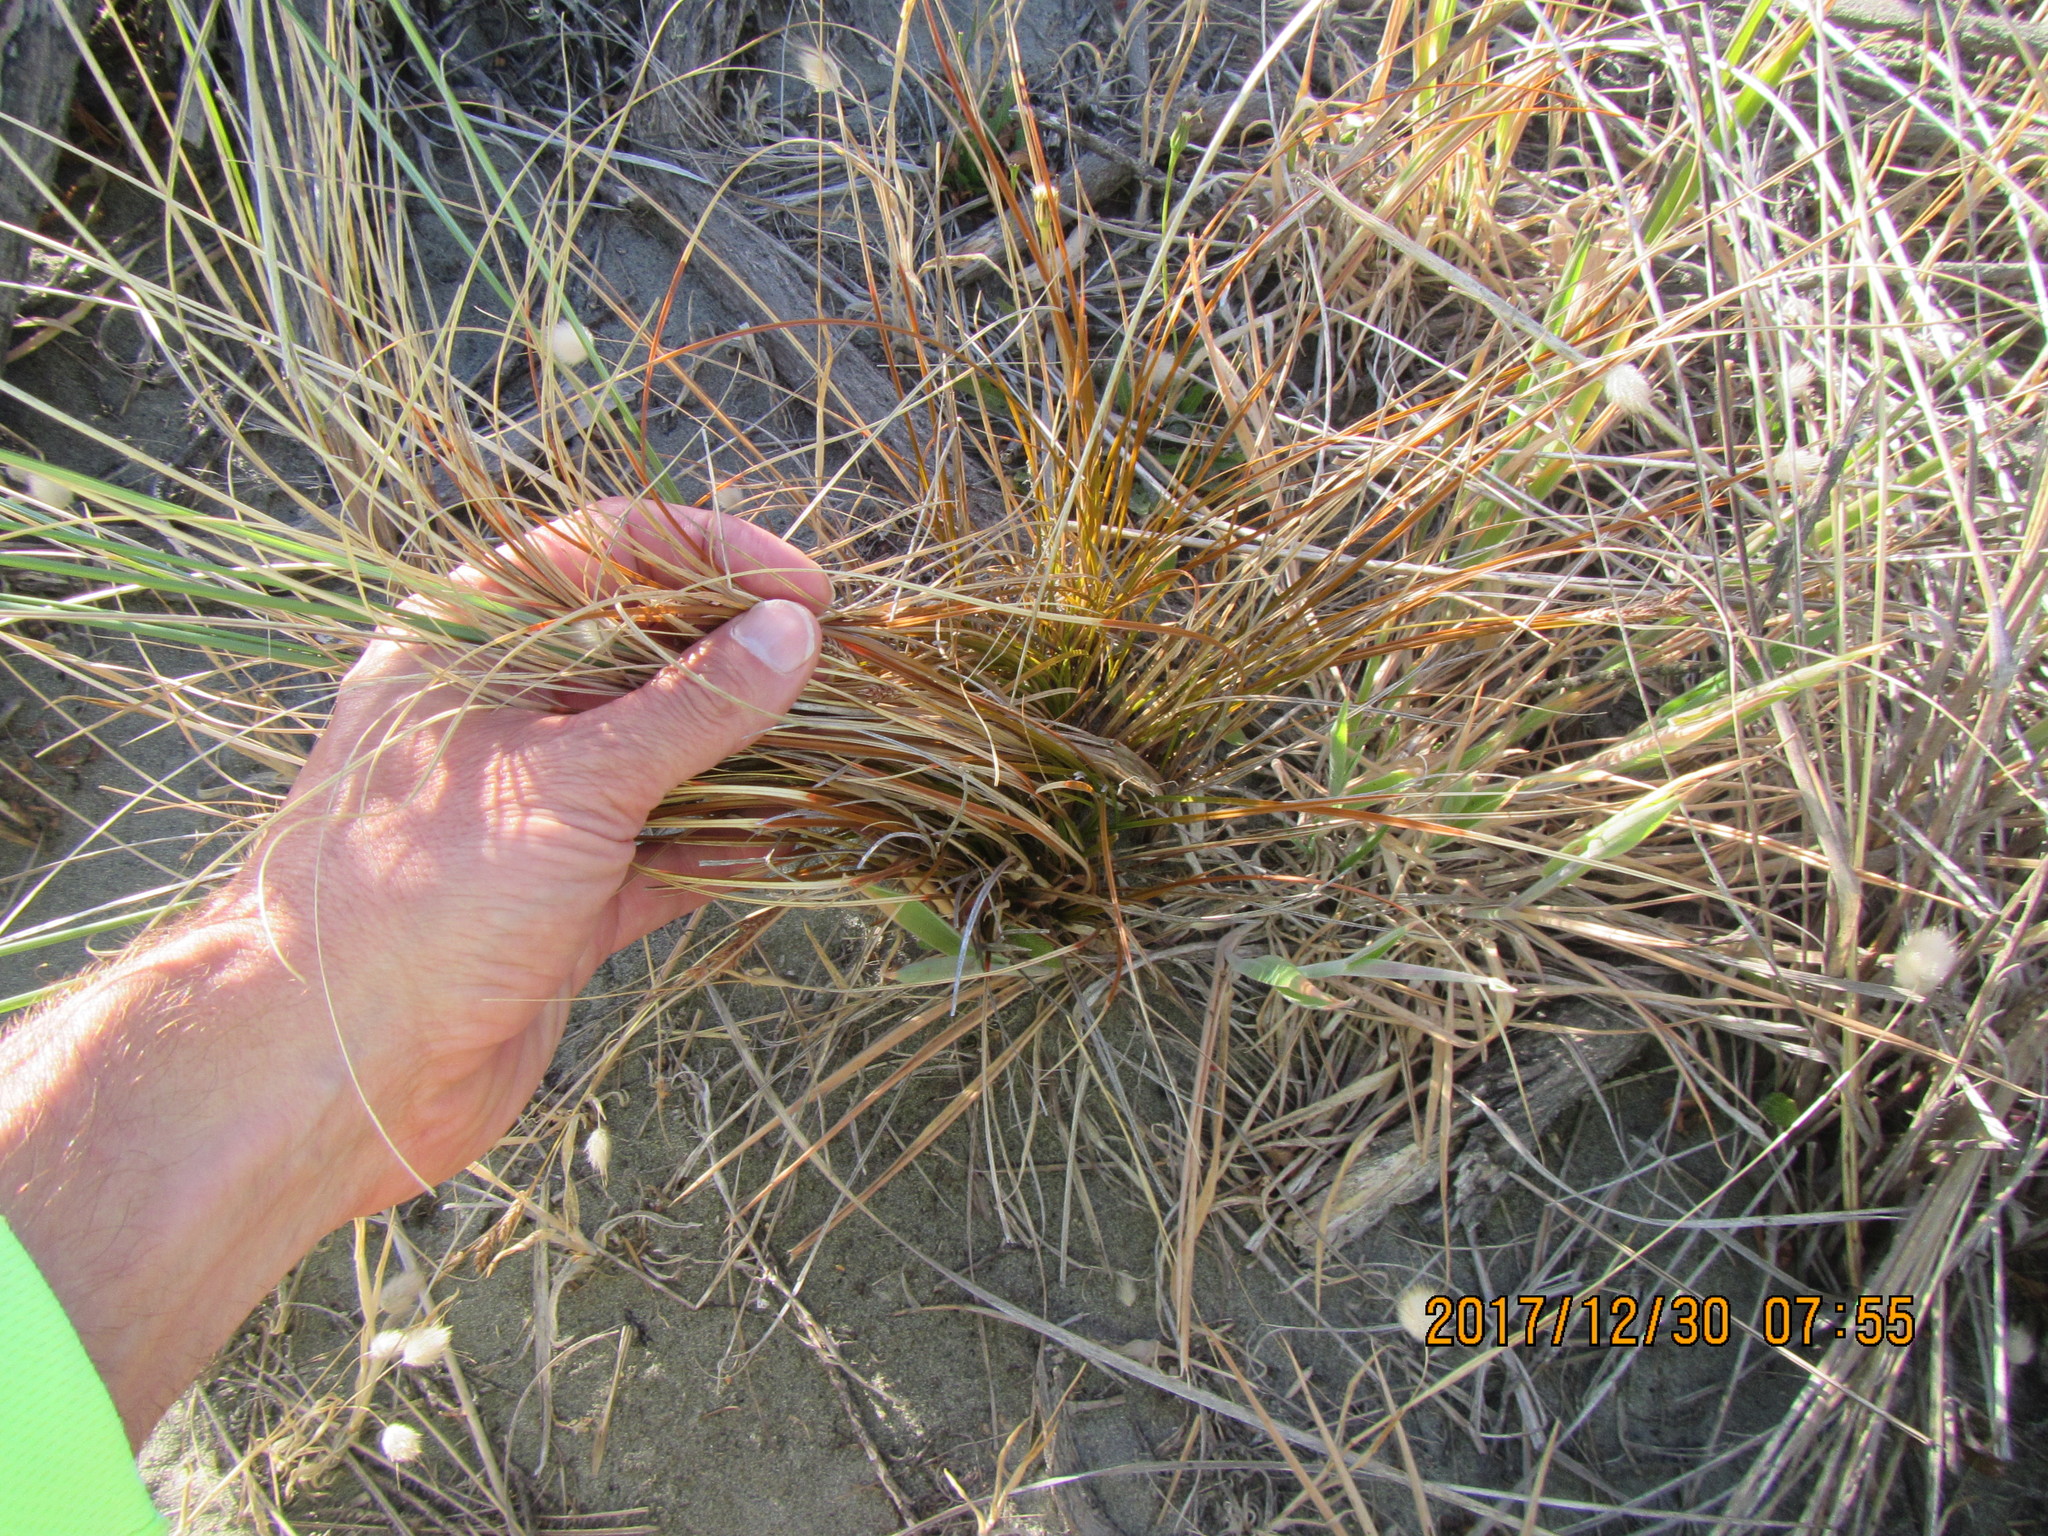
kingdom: Plantae
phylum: Tracheophyta
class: Liliopsida
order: Poales
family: Cyperaceae
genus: Carex
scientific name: Carex testacea
